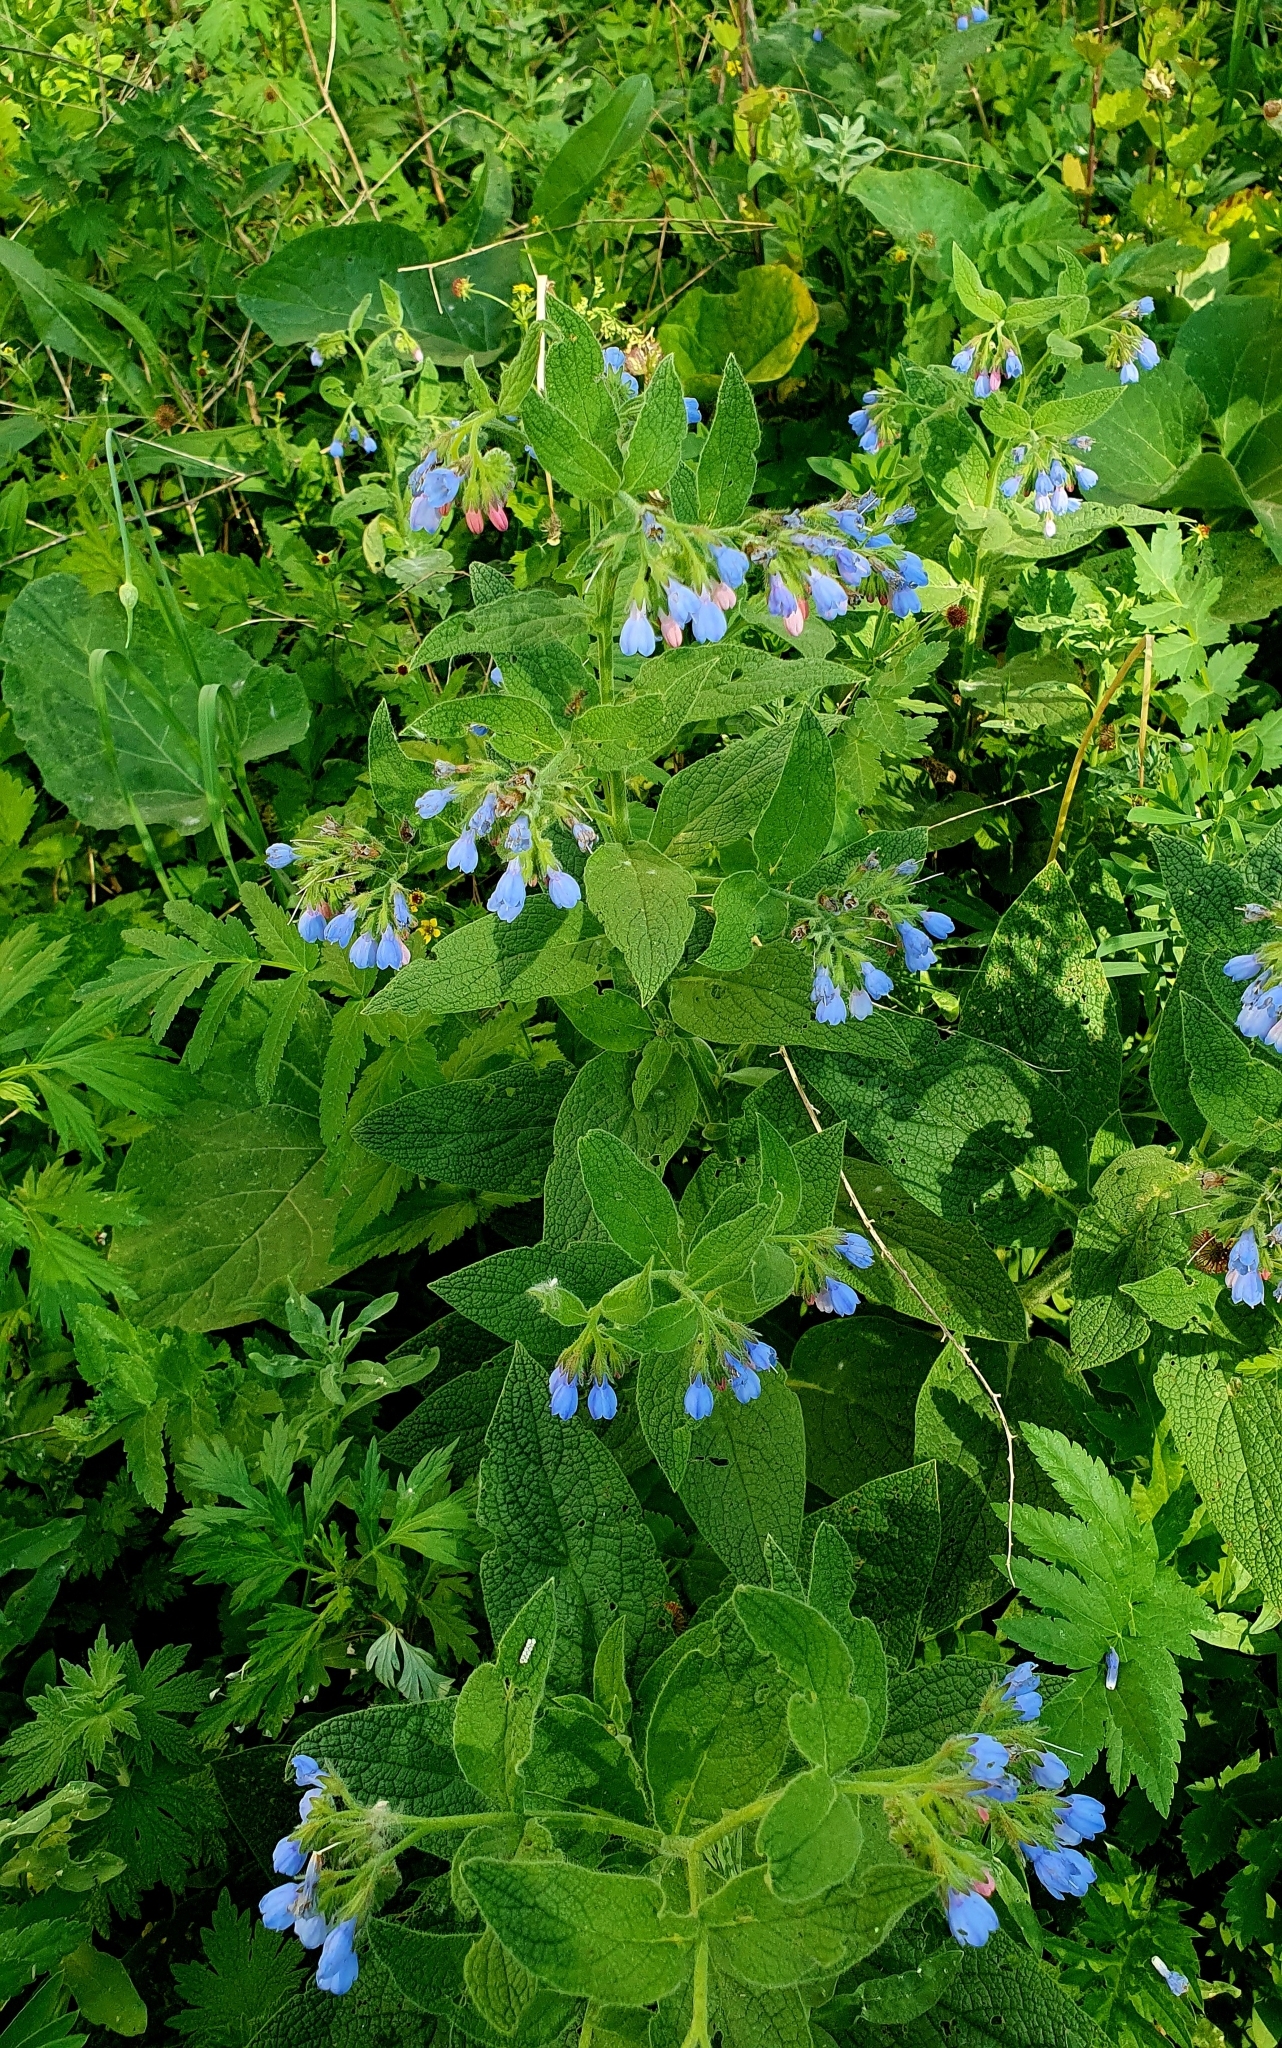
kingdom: Plantae
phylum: Tracheophyta
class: Magnoliopsida
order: Boraginales
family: Boraginaceae
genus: Symphytum
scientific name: Symphytum caucasicum
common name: Caucasian comfrey
